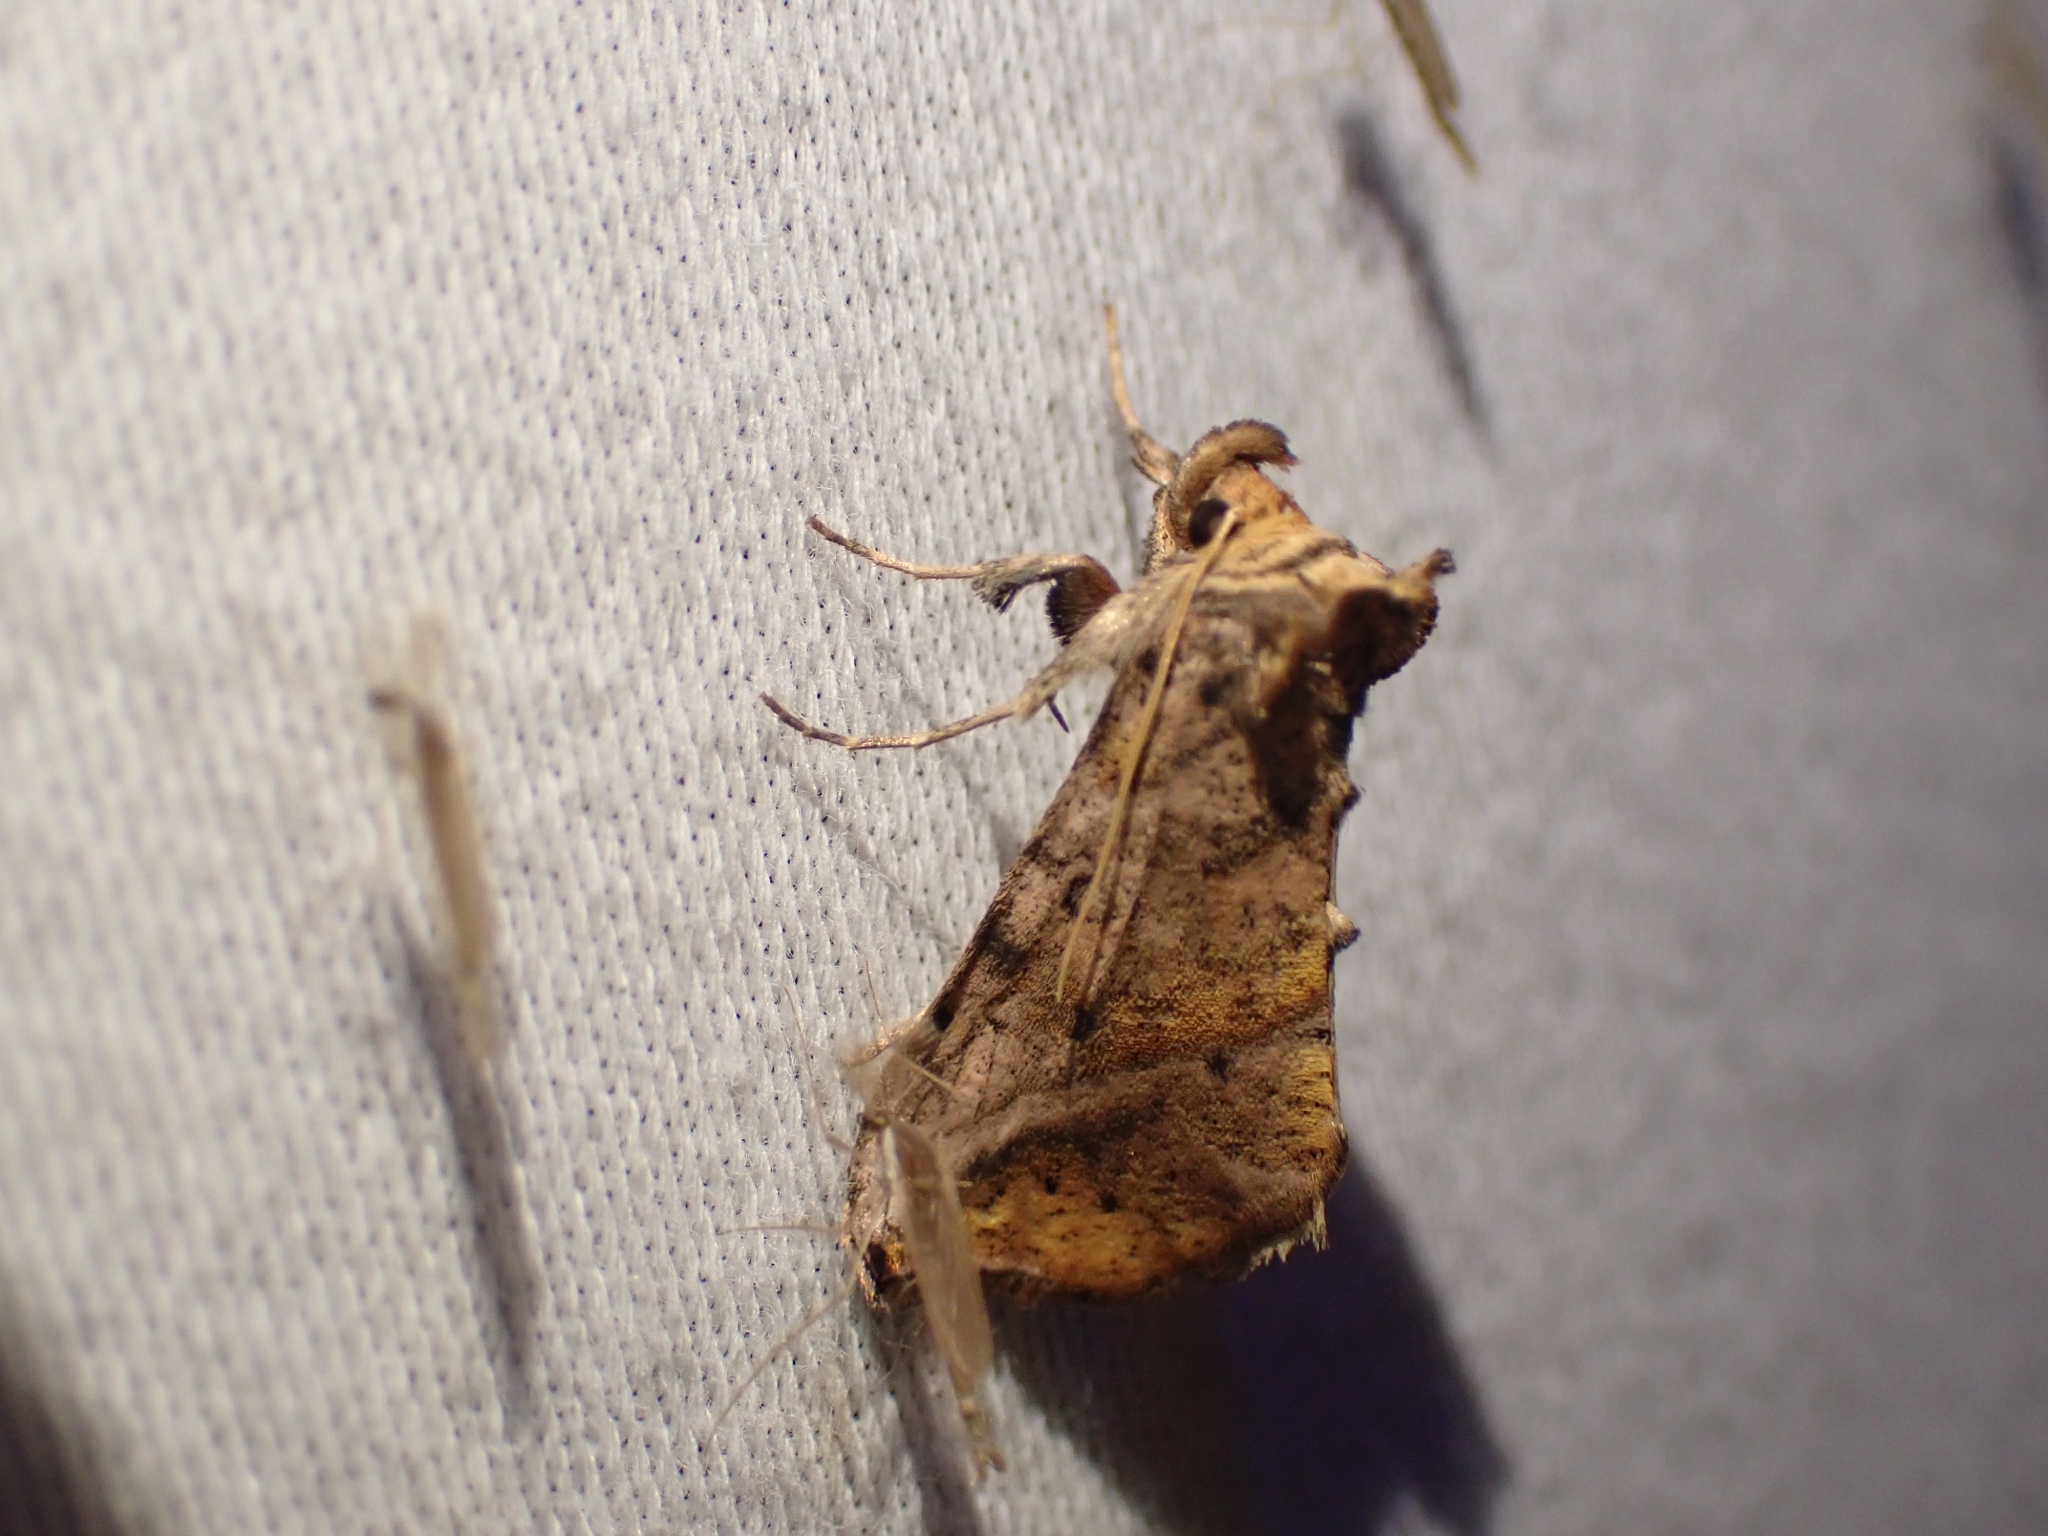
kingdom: Animalia
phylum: Arthropoda
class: Insecta
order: Lepidoptera
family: Noctuidae
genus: Pseudeva
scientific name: Pseudeva purpurigera
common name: Straight-lined looper moth
